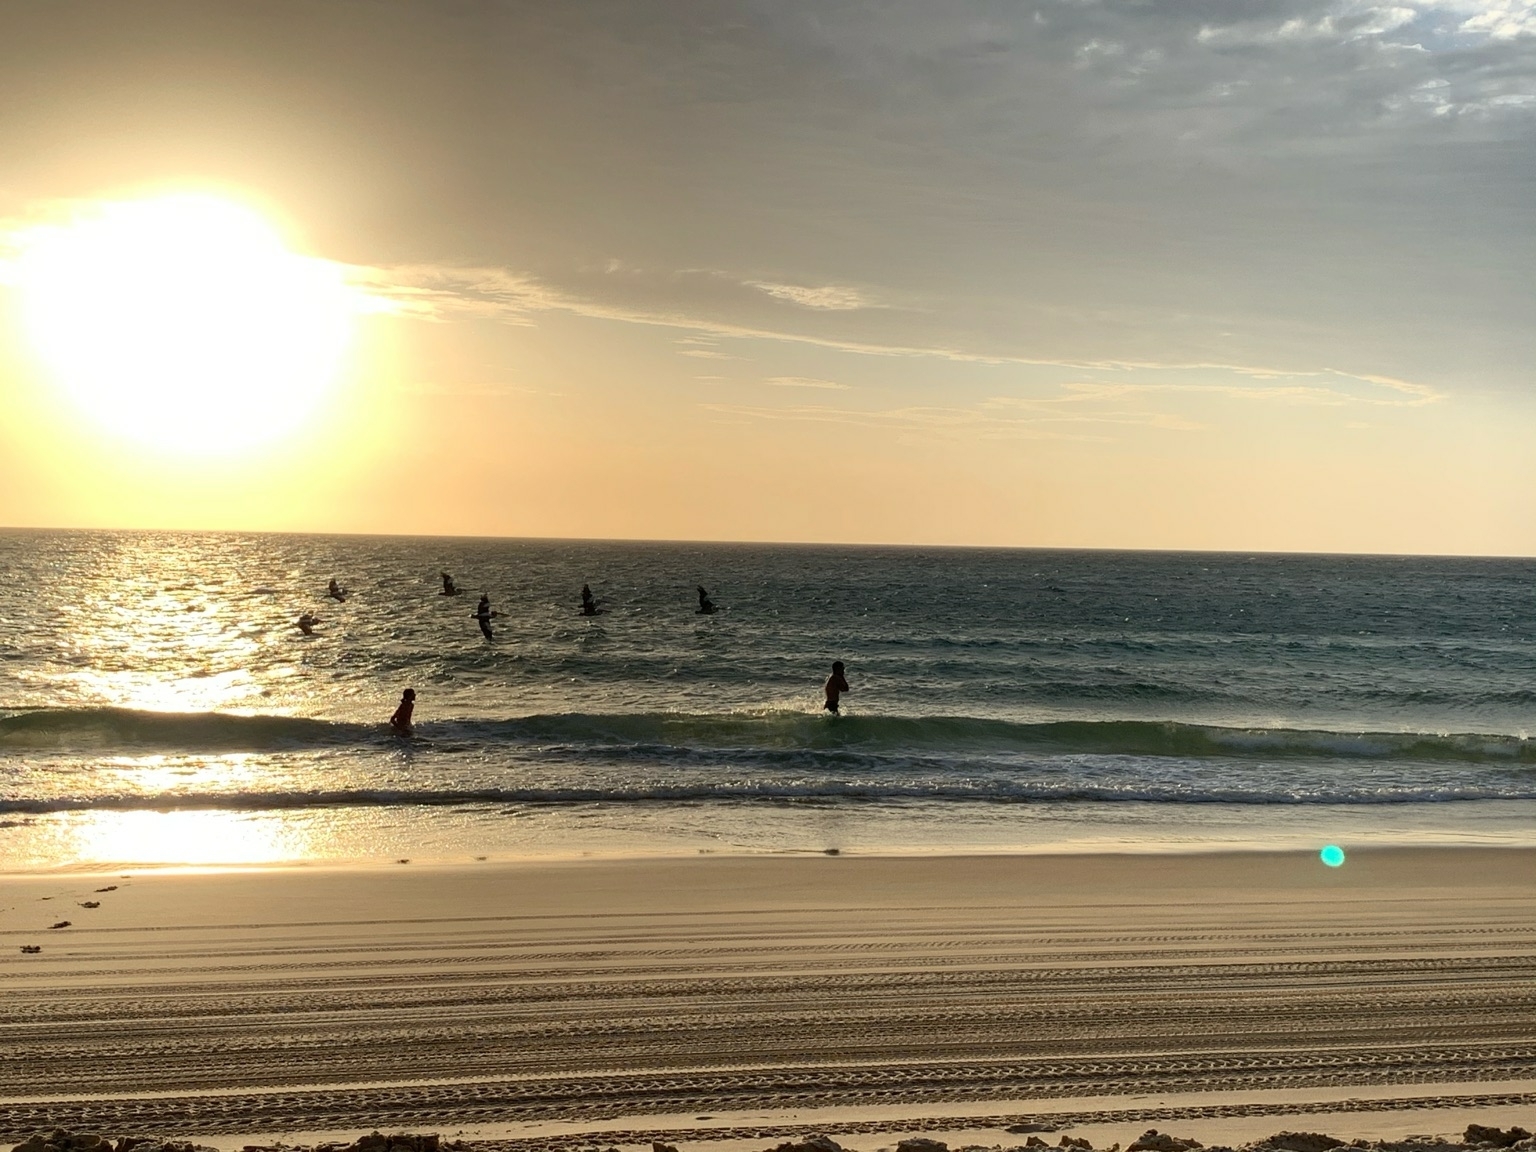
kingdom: Animalia
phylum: Chordata
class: Aves
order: Pelecaniformes
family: Pelecanidae
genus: Pelecanus
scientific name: Pelecanus conspicillatus
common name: Australian pelican
